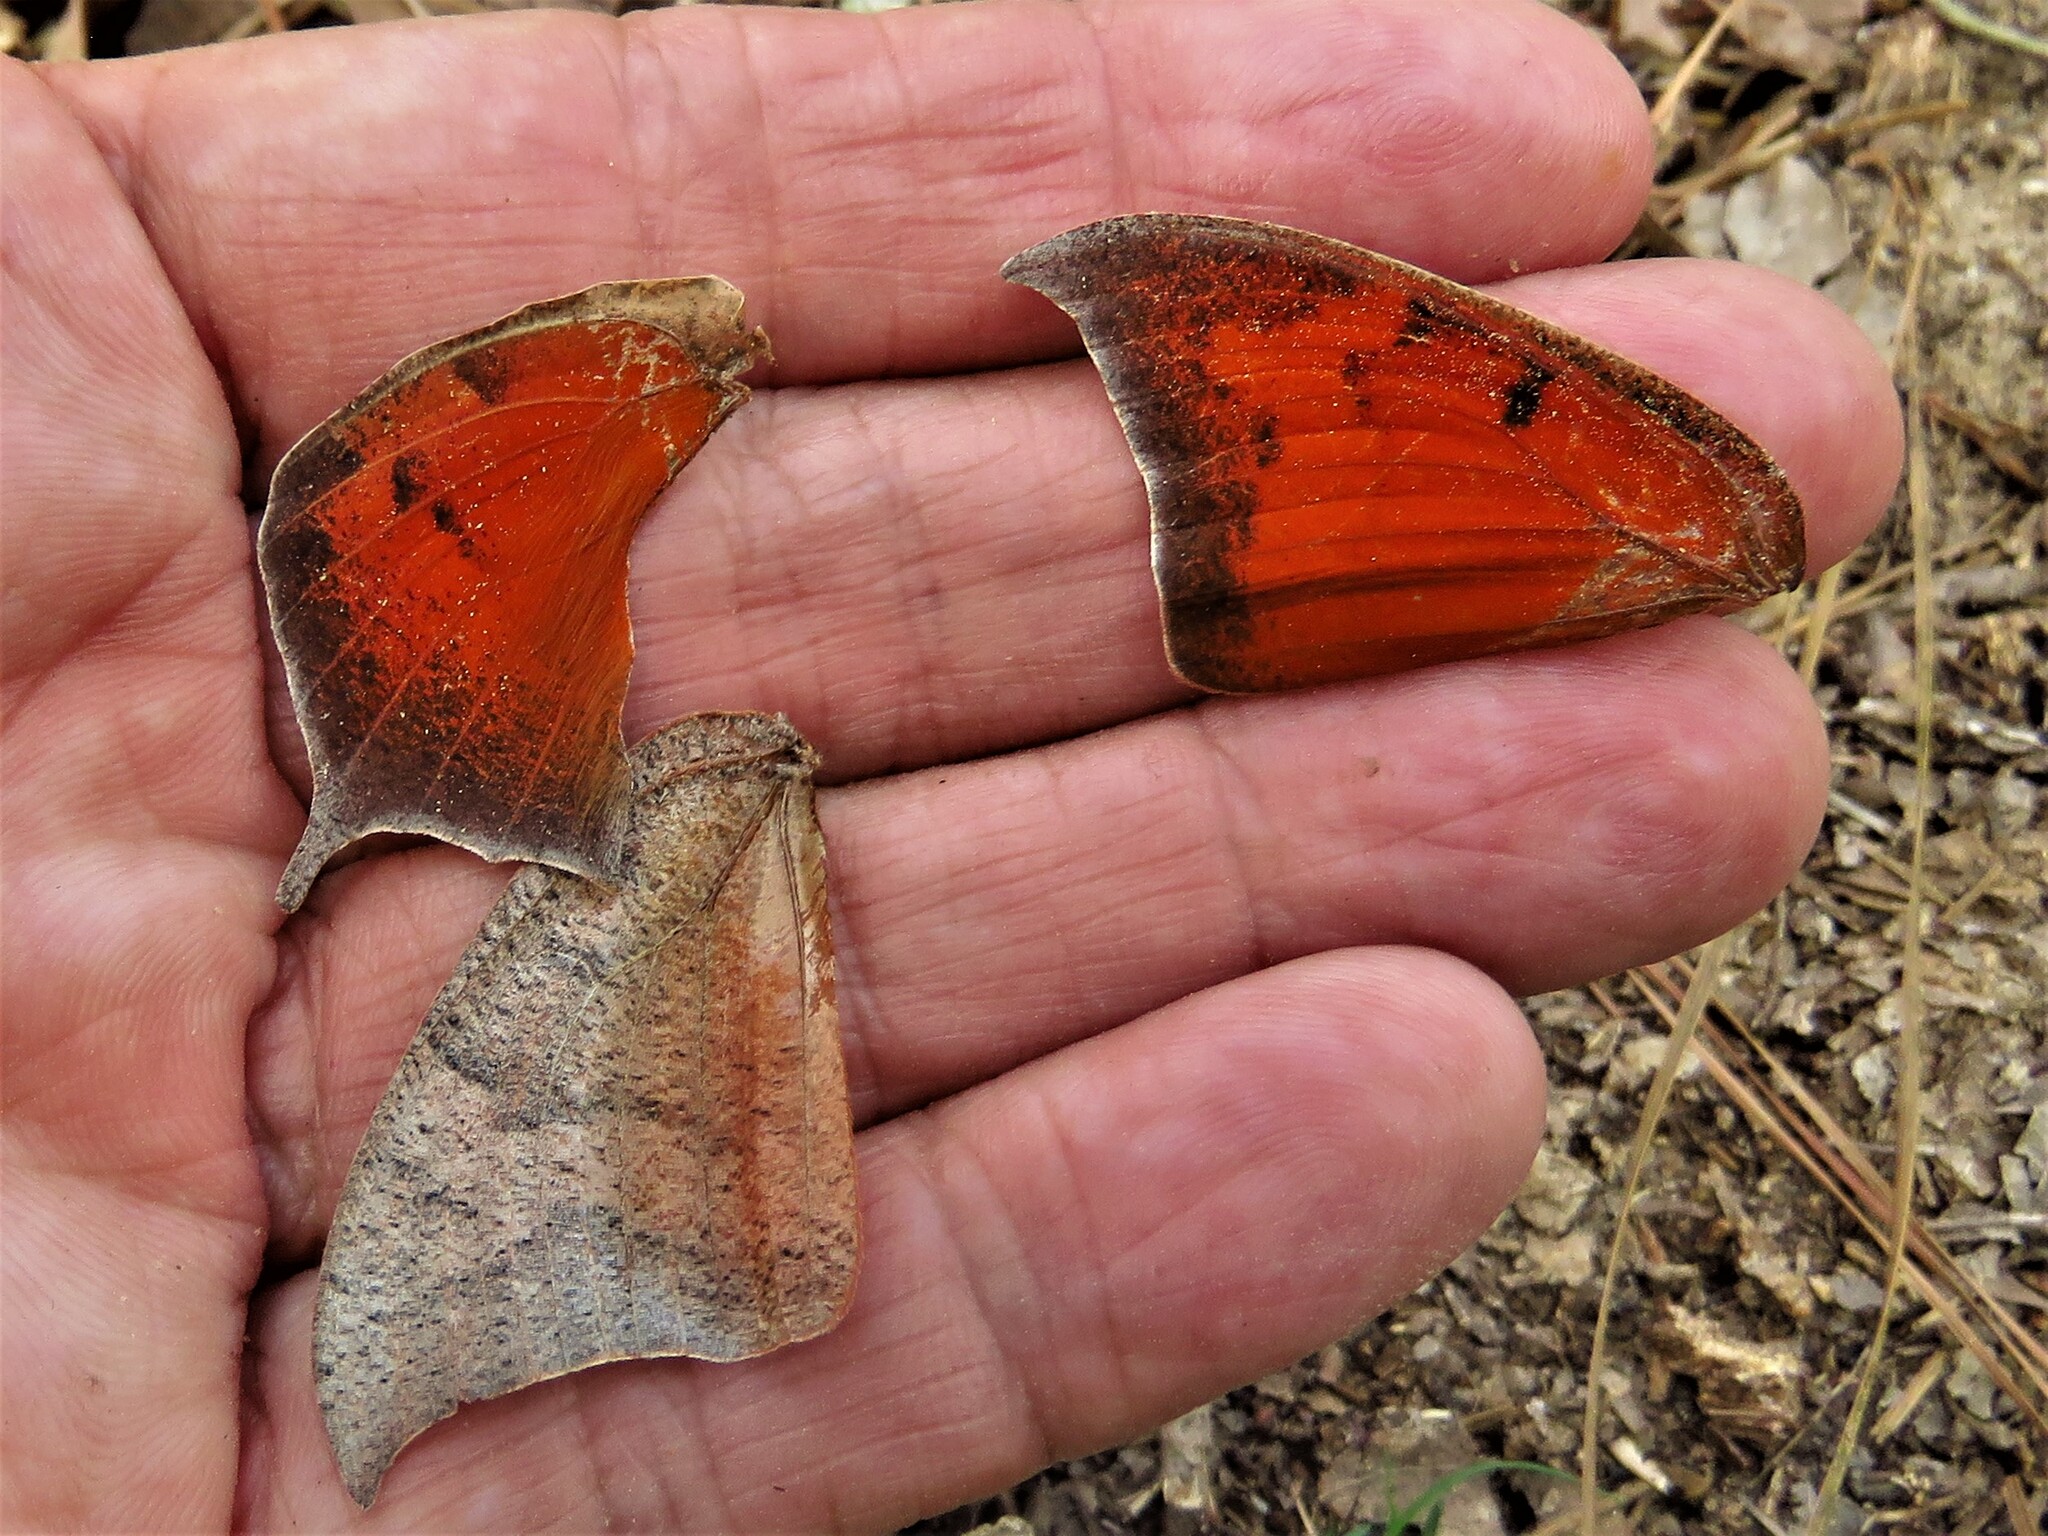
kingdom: Animalia
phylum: Arthropoda
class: Insecta
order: Lepidoptera
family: Nymphalidae
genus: Anaea
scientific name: Anaea andria
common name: Goatweed leafwing
